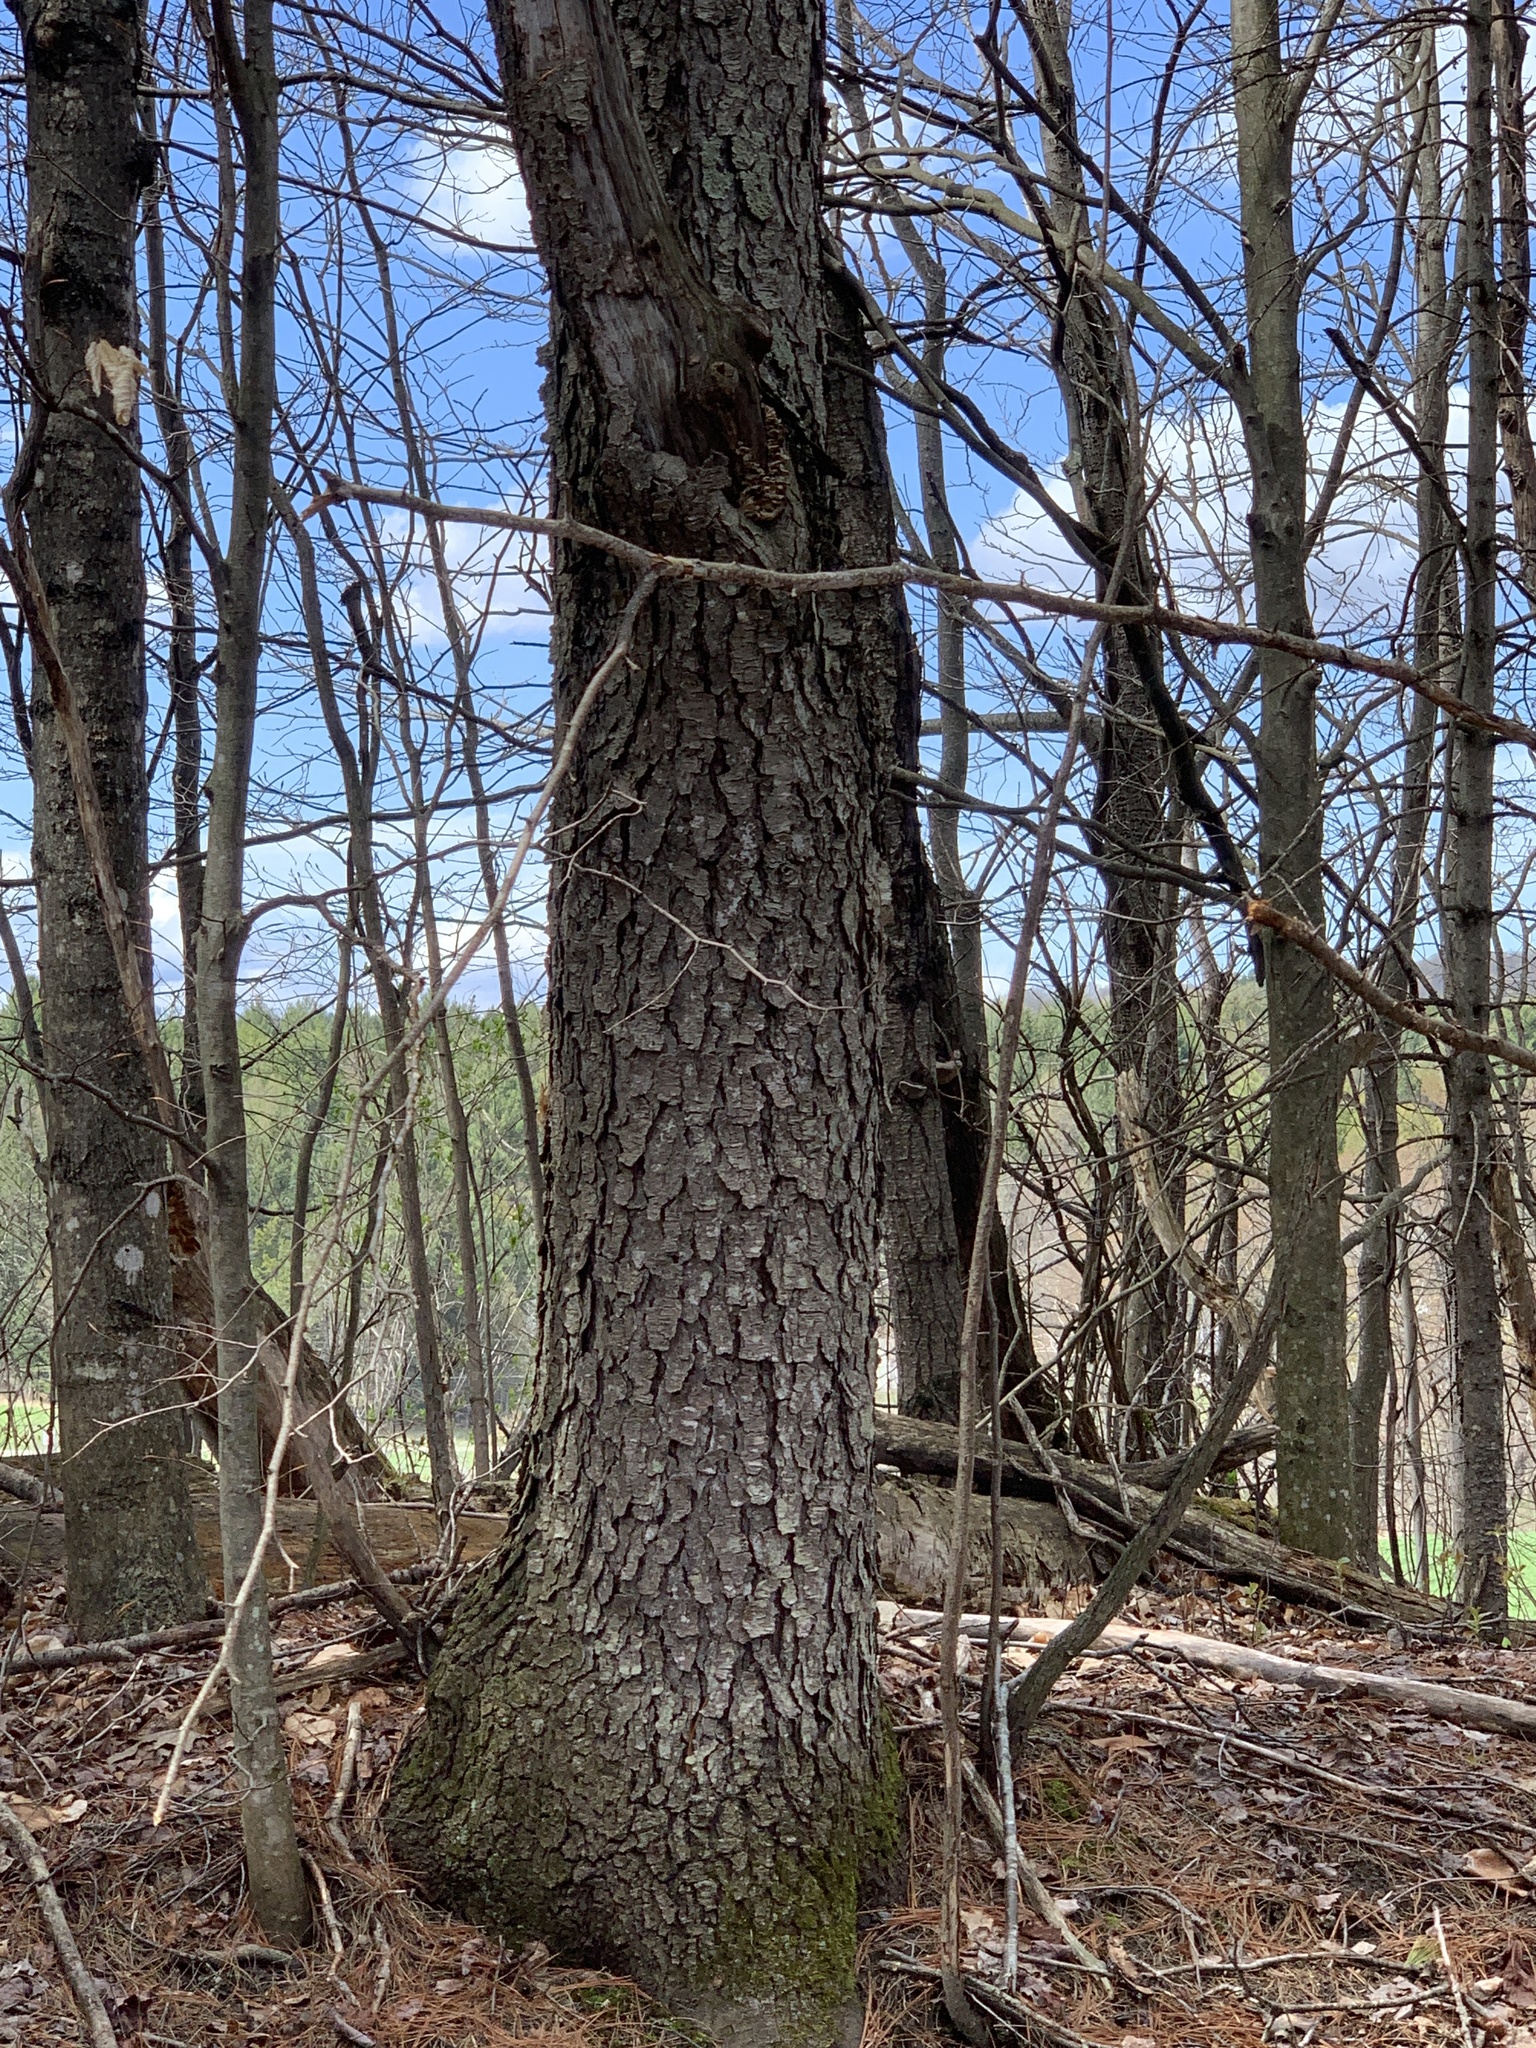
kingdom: Plantae
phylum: Tracheophyta
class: Magnoliopsida
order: Rosales
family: Rosaceae
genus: Prunus
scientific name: Prunus serotina
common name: Black cherry
